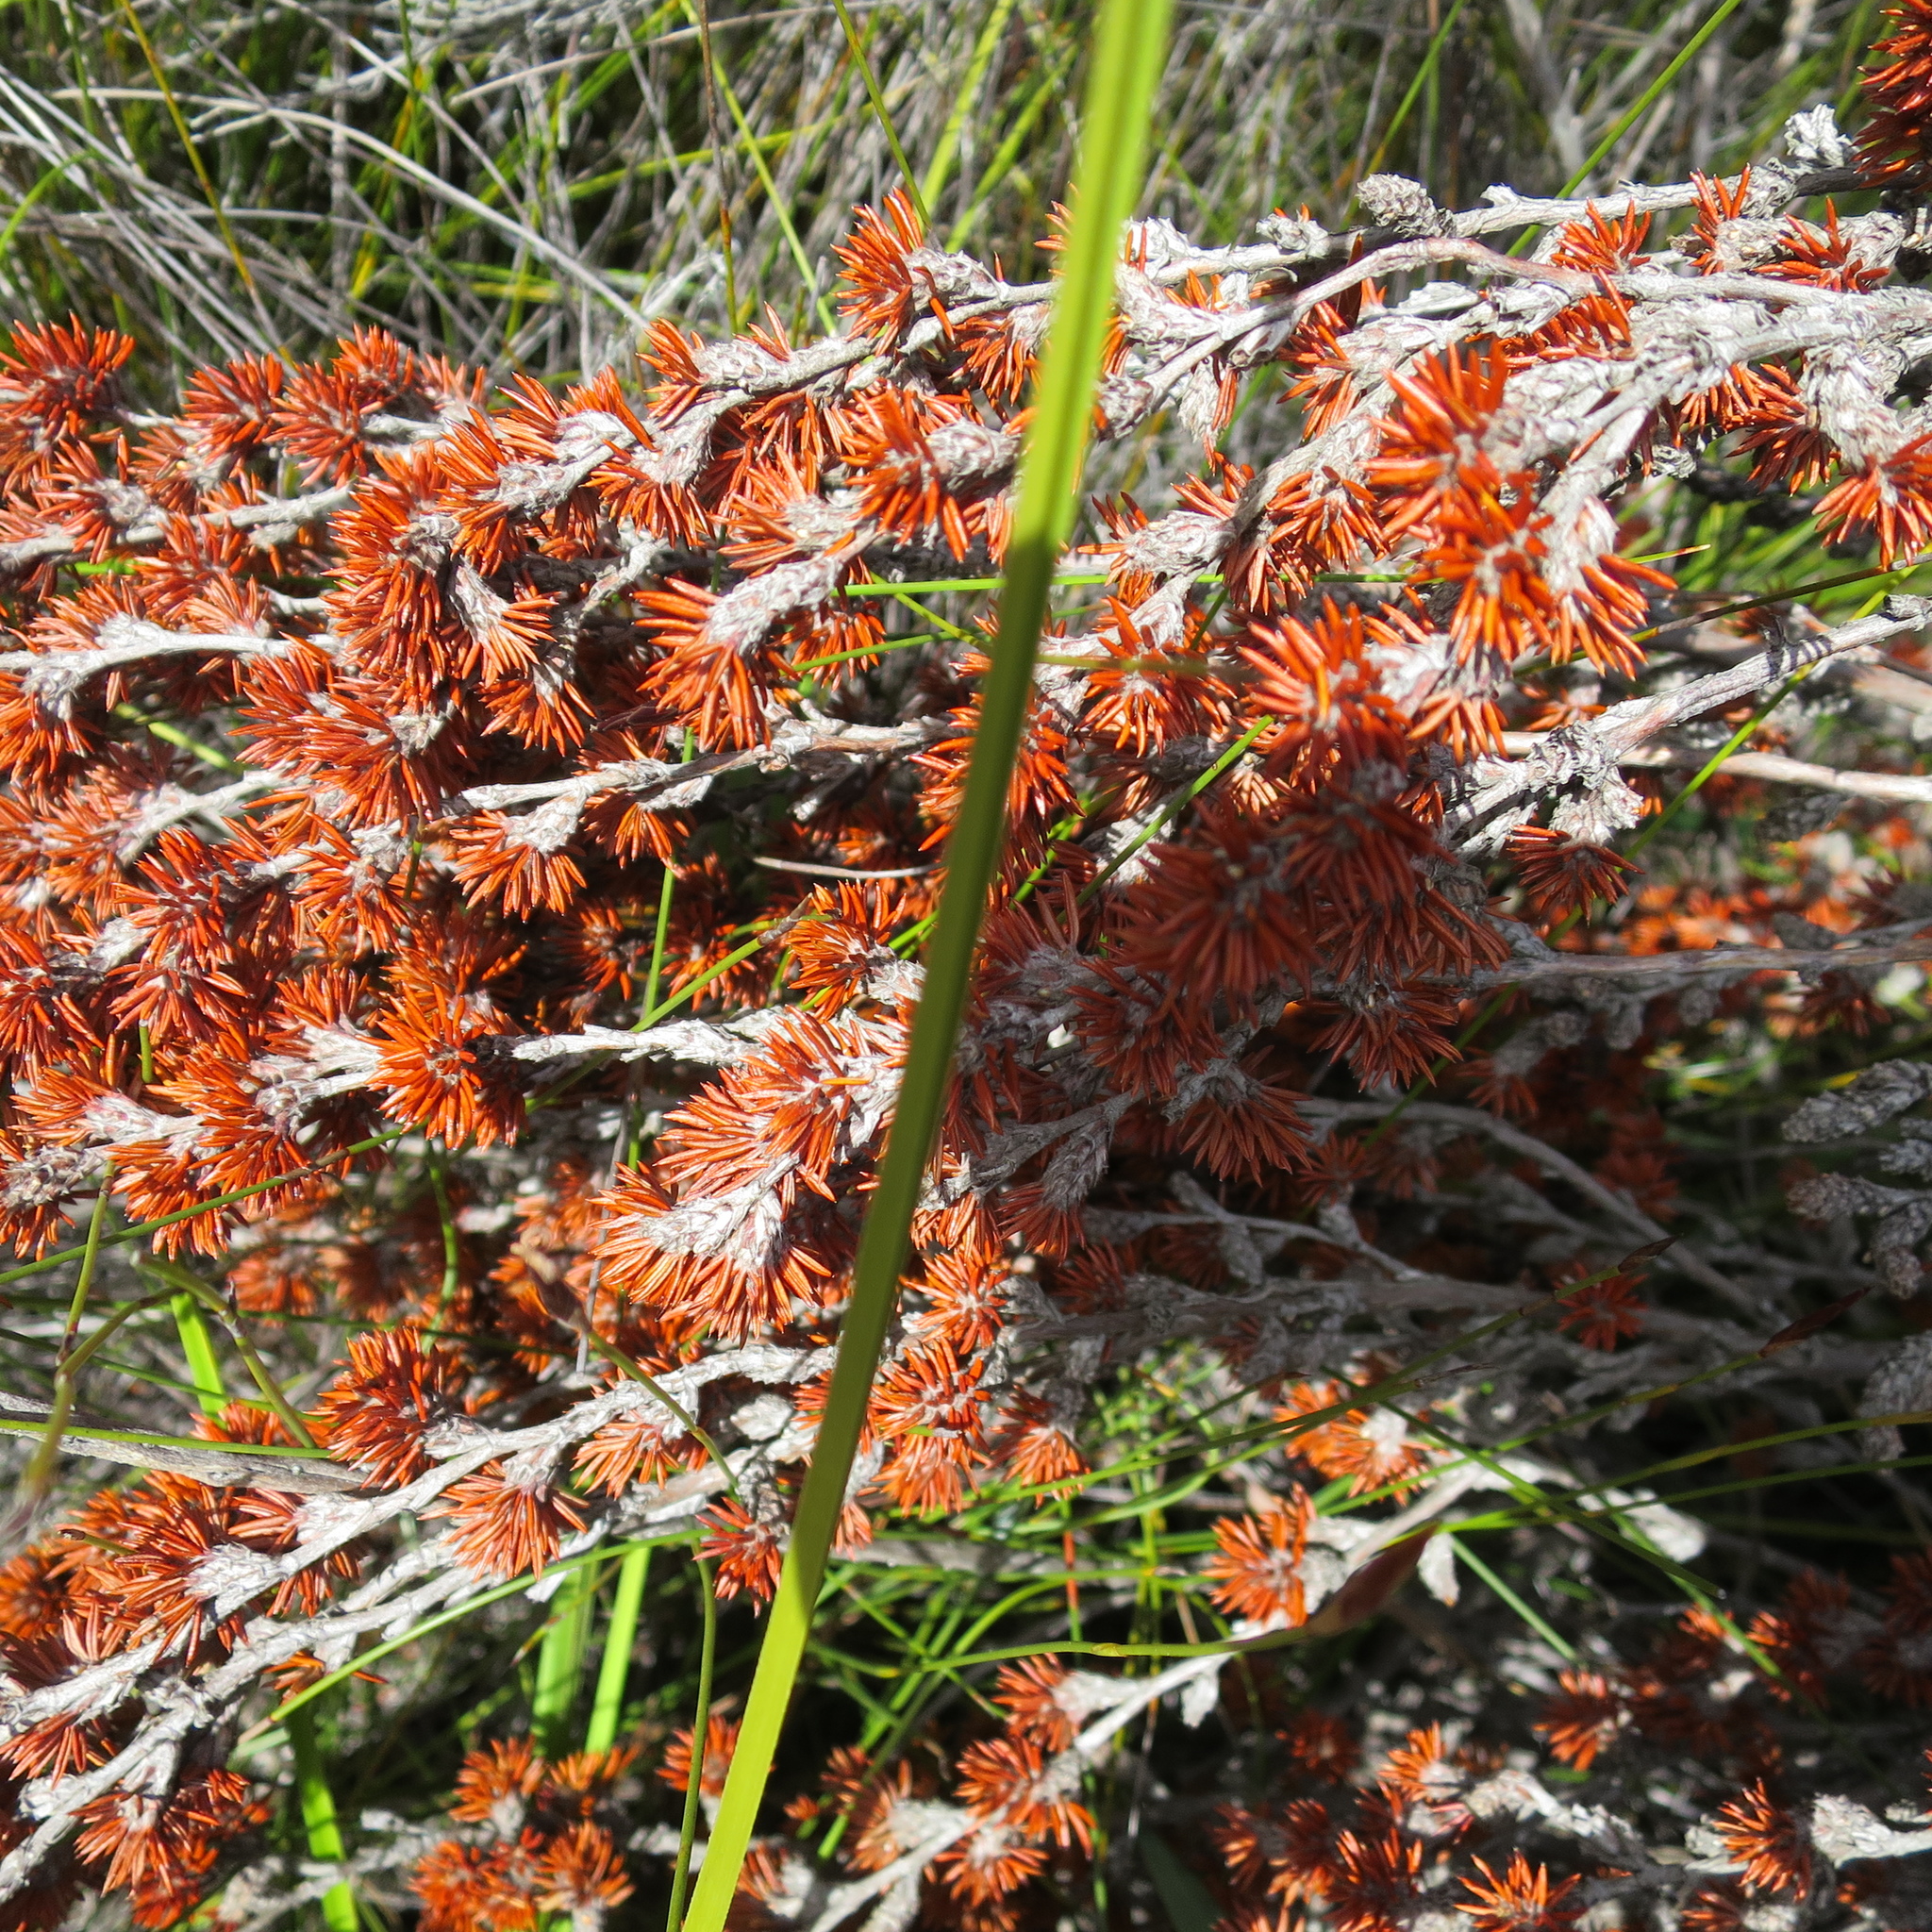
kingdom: Plantae
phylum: Tracheophyta
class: Magnoliopsida
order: Rosales
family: Rosaceae
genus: Cliffortia
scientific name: Cliffortia stricta
